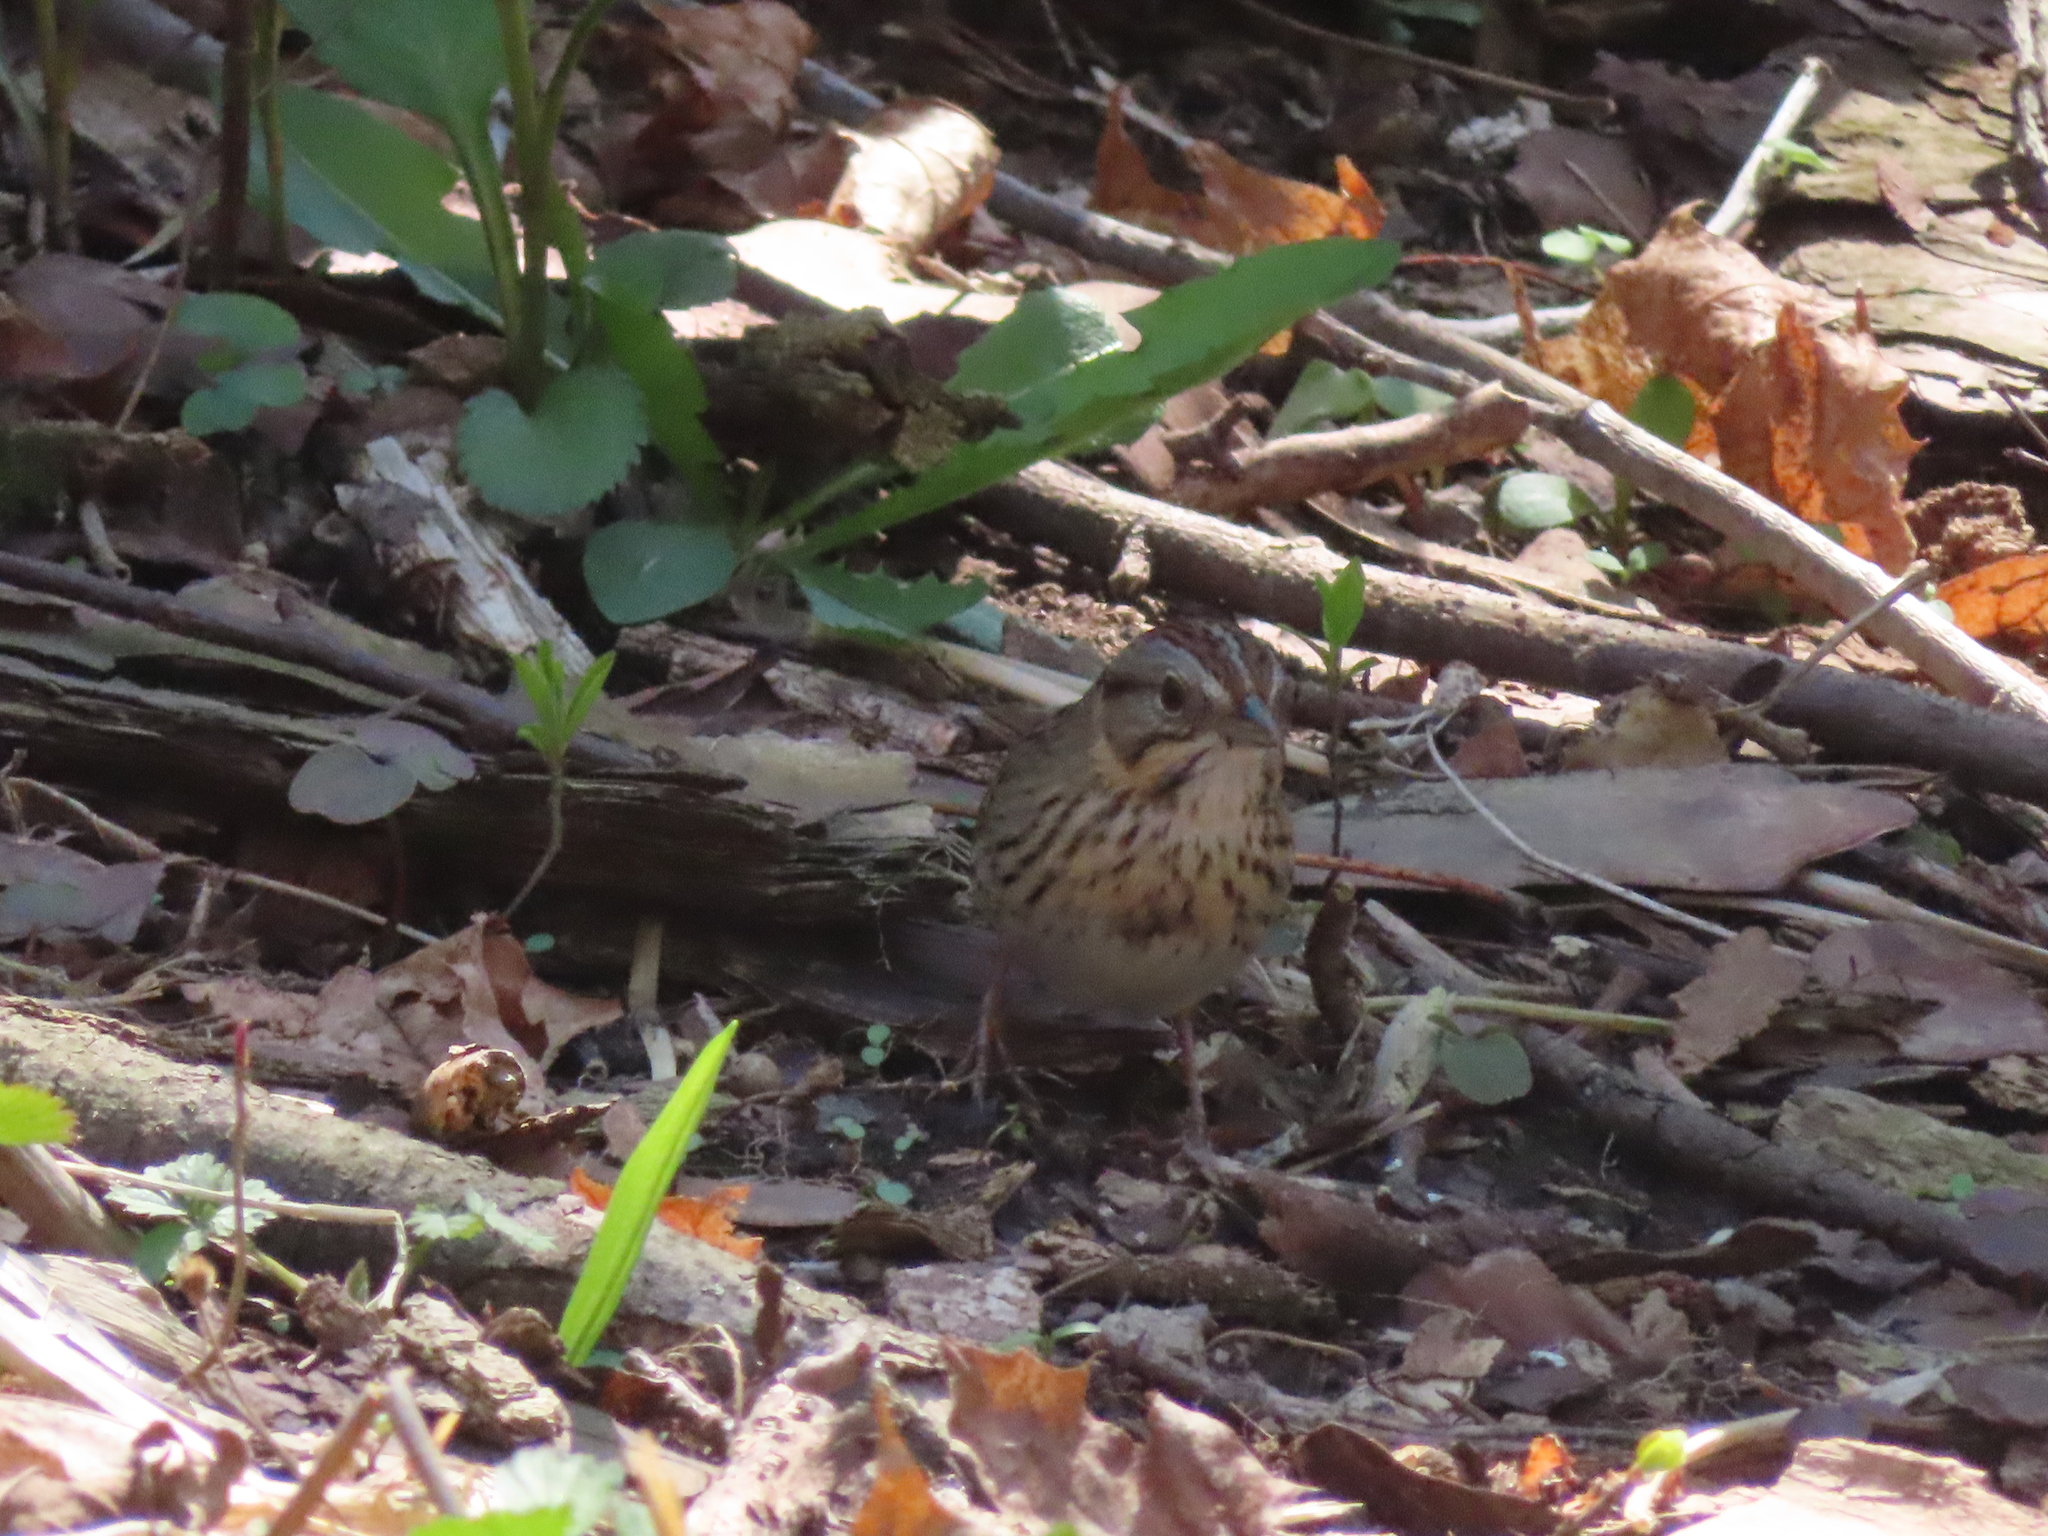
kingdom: Animalia
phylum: Chordata
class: Aves
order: Passeriformes
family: Passerellidae
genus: Melospiza
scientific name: Melospiza lincolnii
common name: Lincoln's sparrow
